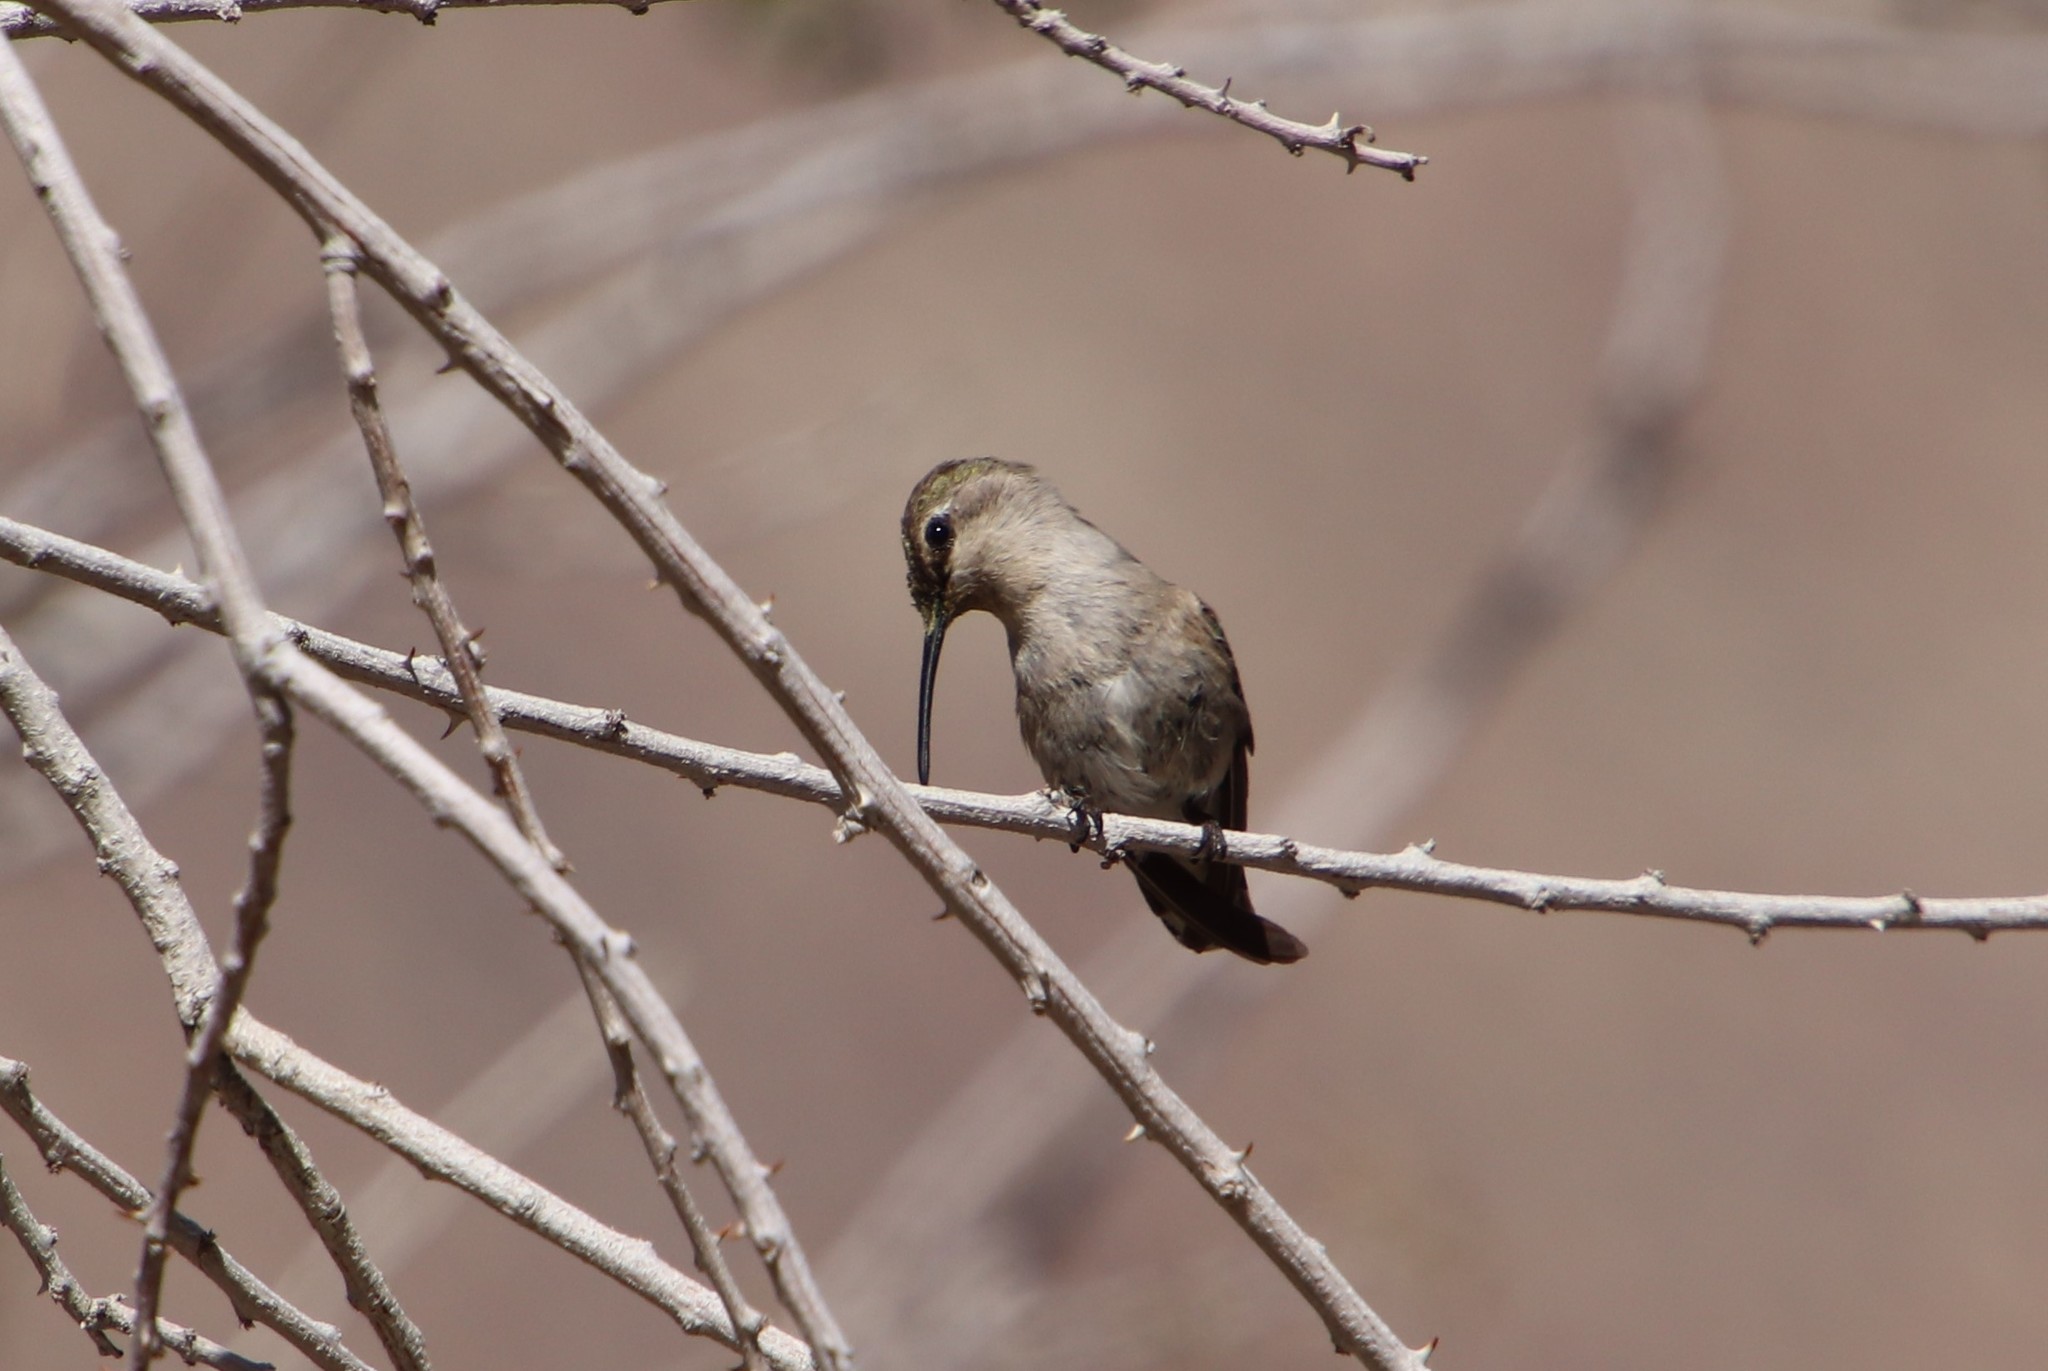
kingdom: Animalia
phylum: Chordata
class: Aves
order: Apodiformes
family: Trochilidae
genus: Calypte
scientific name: Calypte costae
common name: Costa's hummingbird
